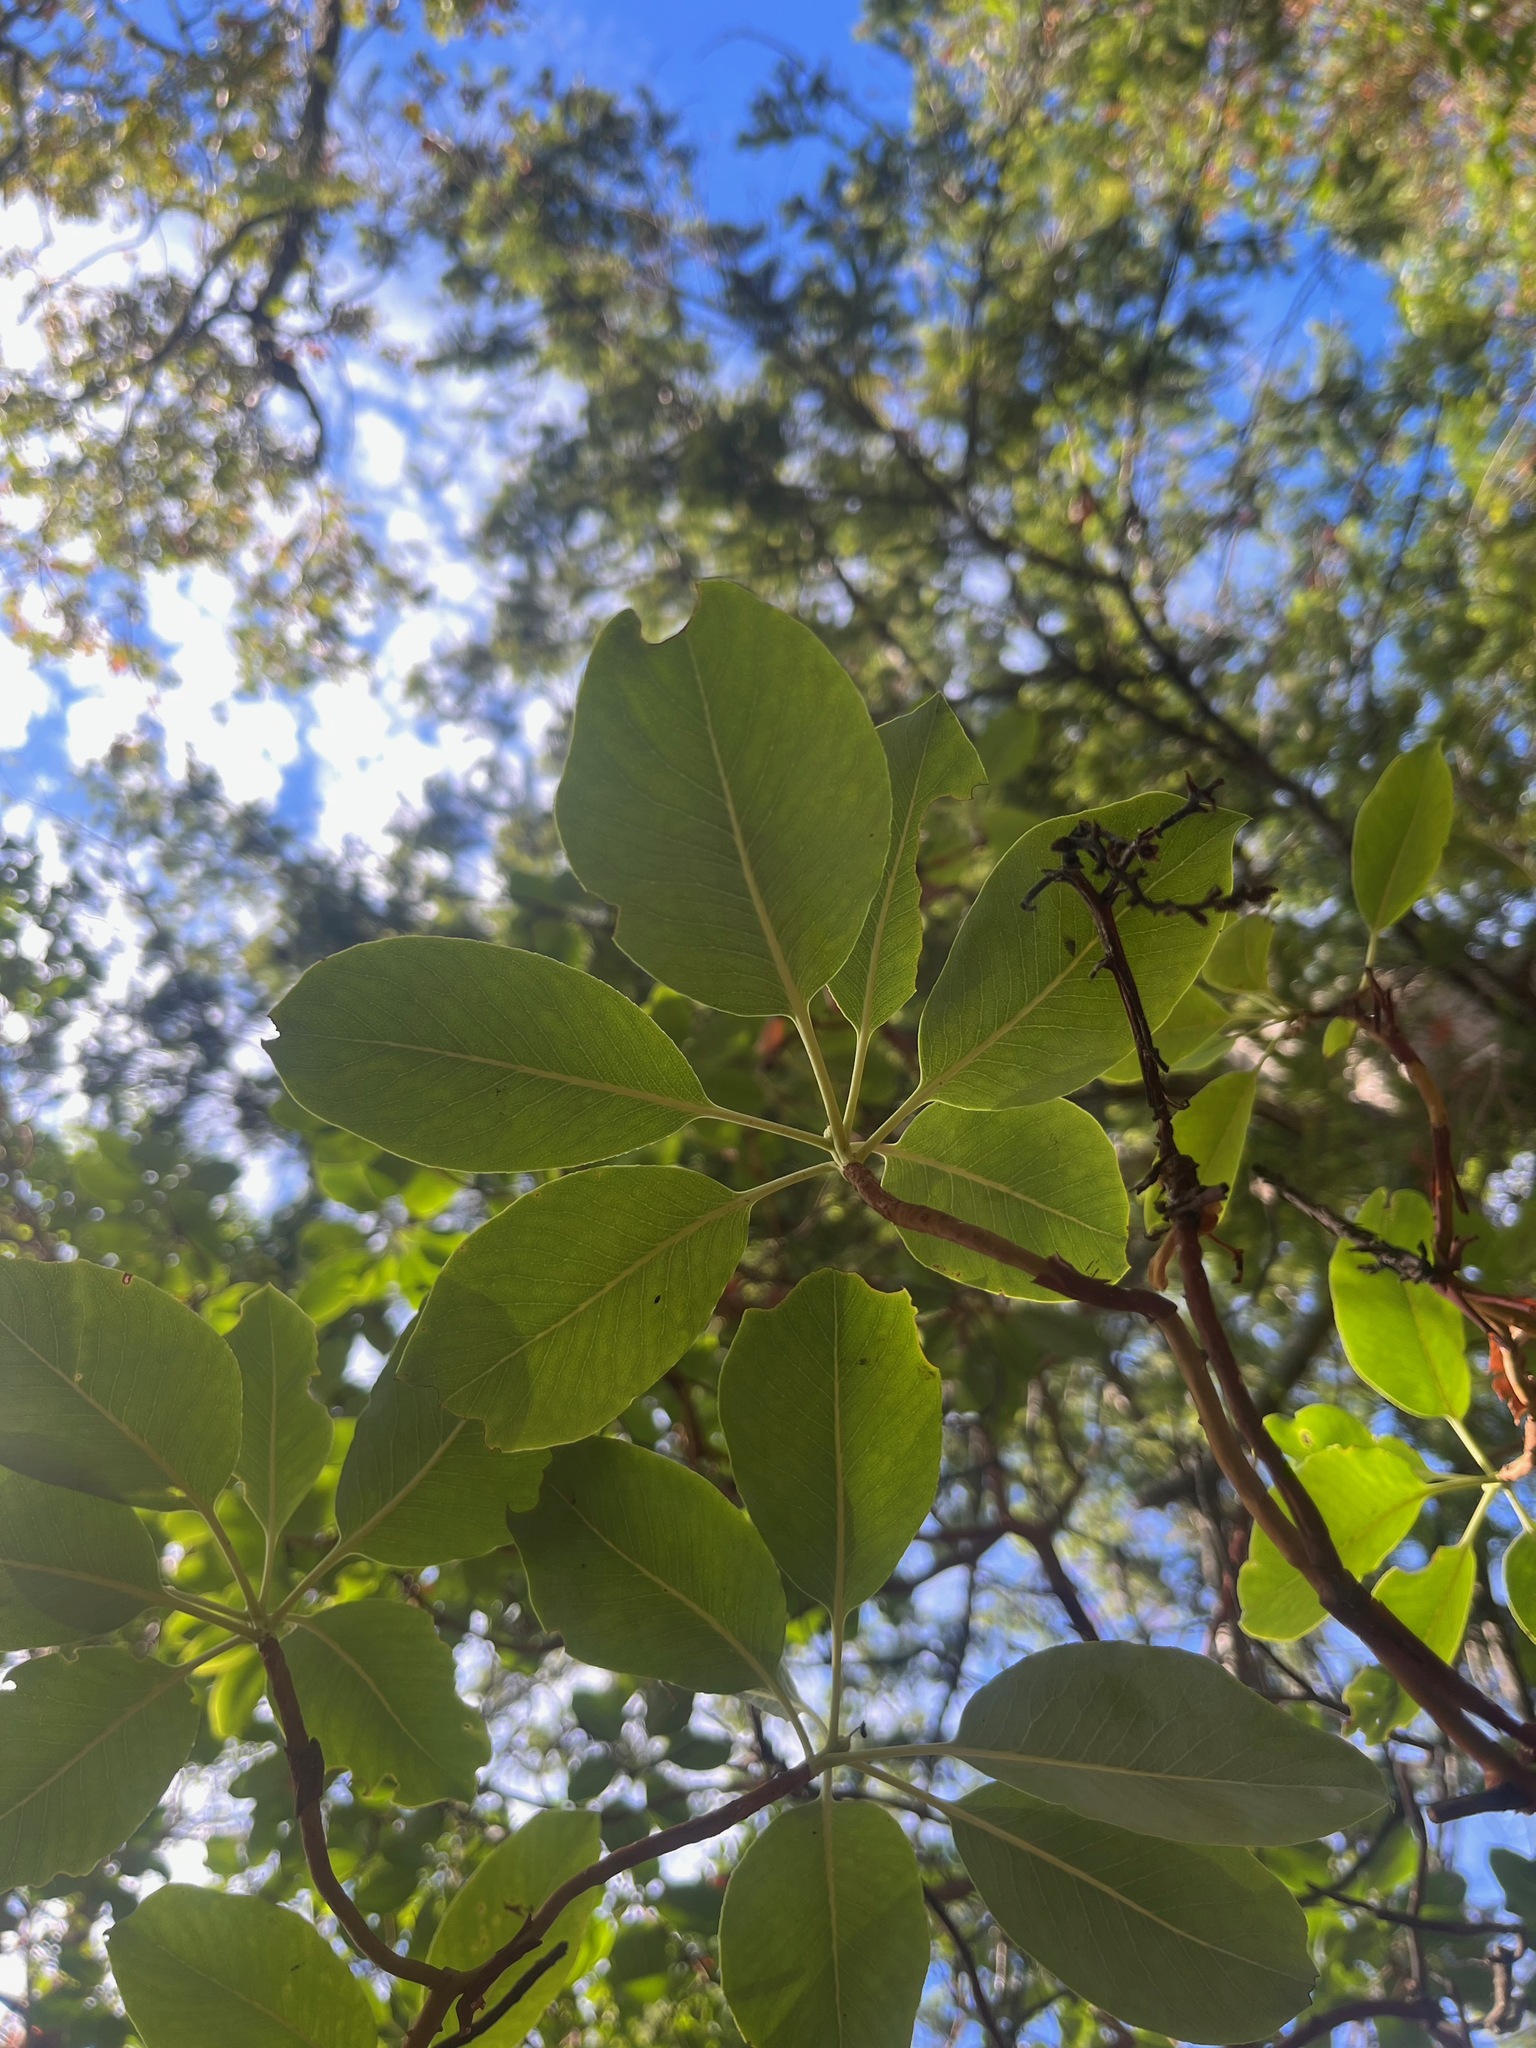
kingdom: Plantae
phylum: Tracheophyta
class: Magnoliopsida
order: Ericales
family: Ericaceae
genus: Arbutus
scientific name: Arbutus menziesii
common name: Pacific madrone
